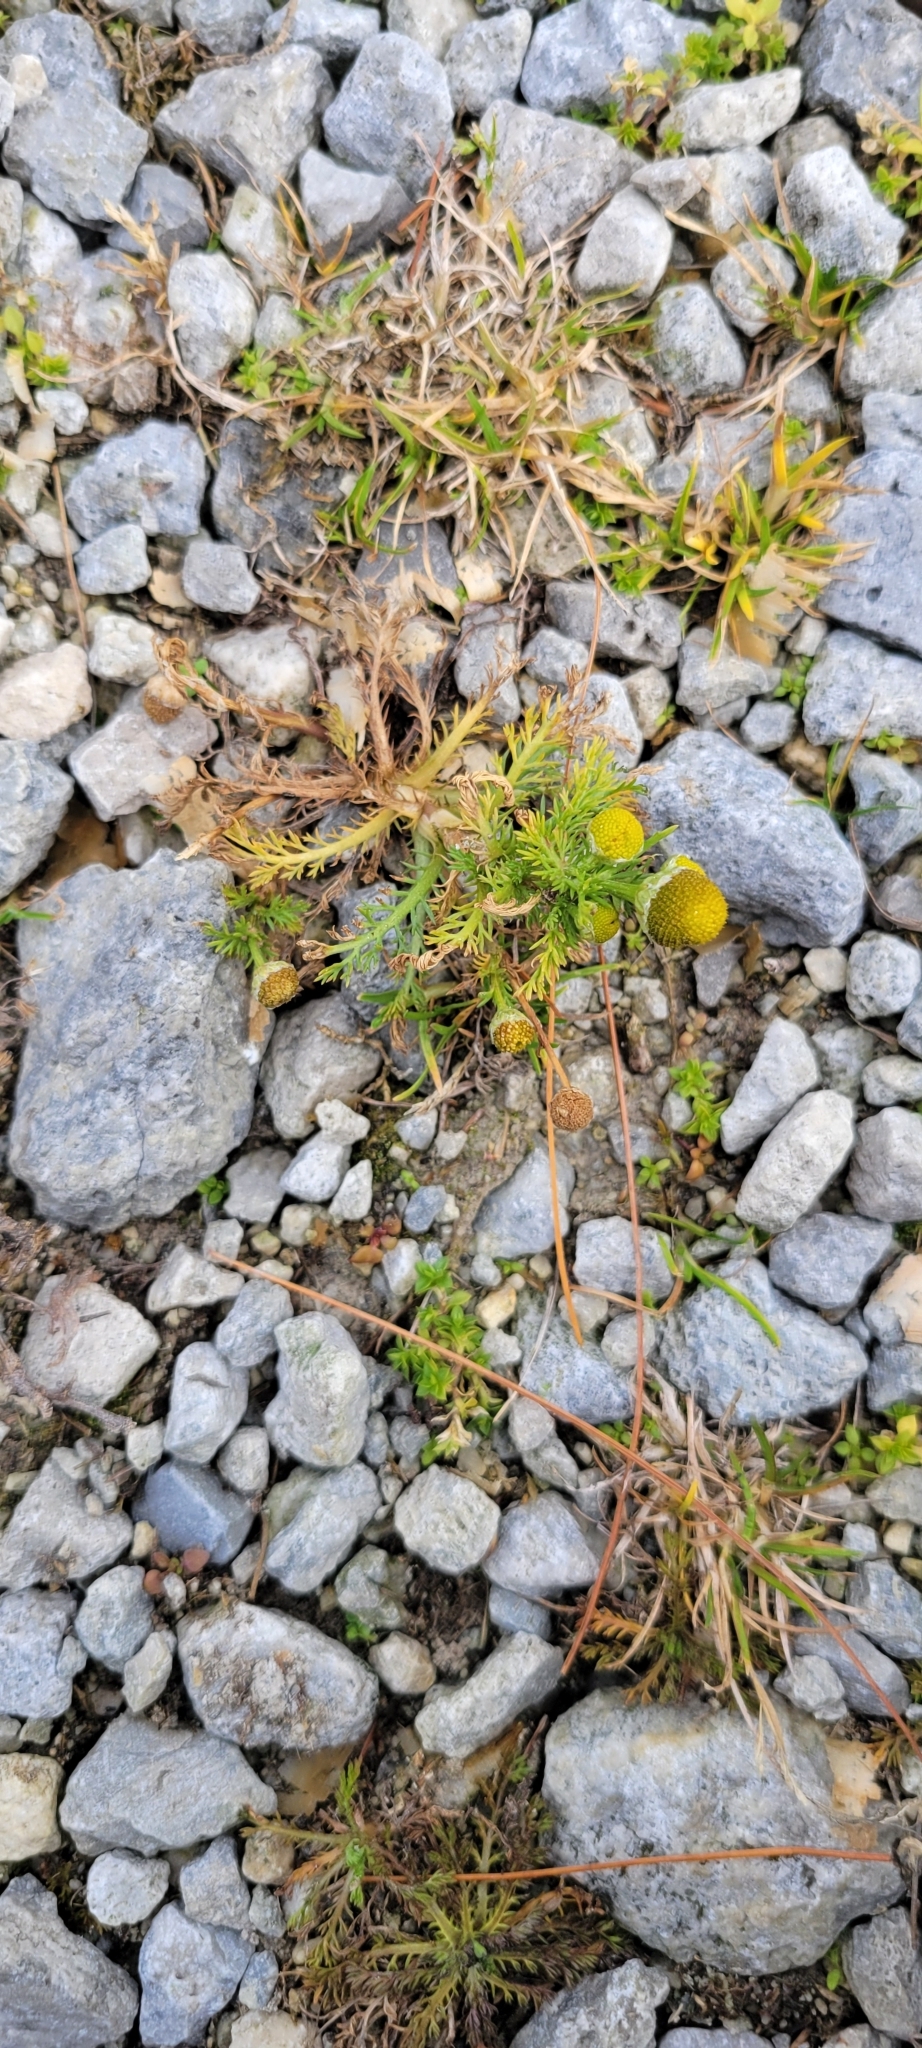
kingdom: Plantae
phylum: Tracheophyta
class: Magnoliopsida
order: Asterales
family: Asteraceae
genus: Matricaria
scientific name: Matricaria discoidea
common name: Disc mayweed
